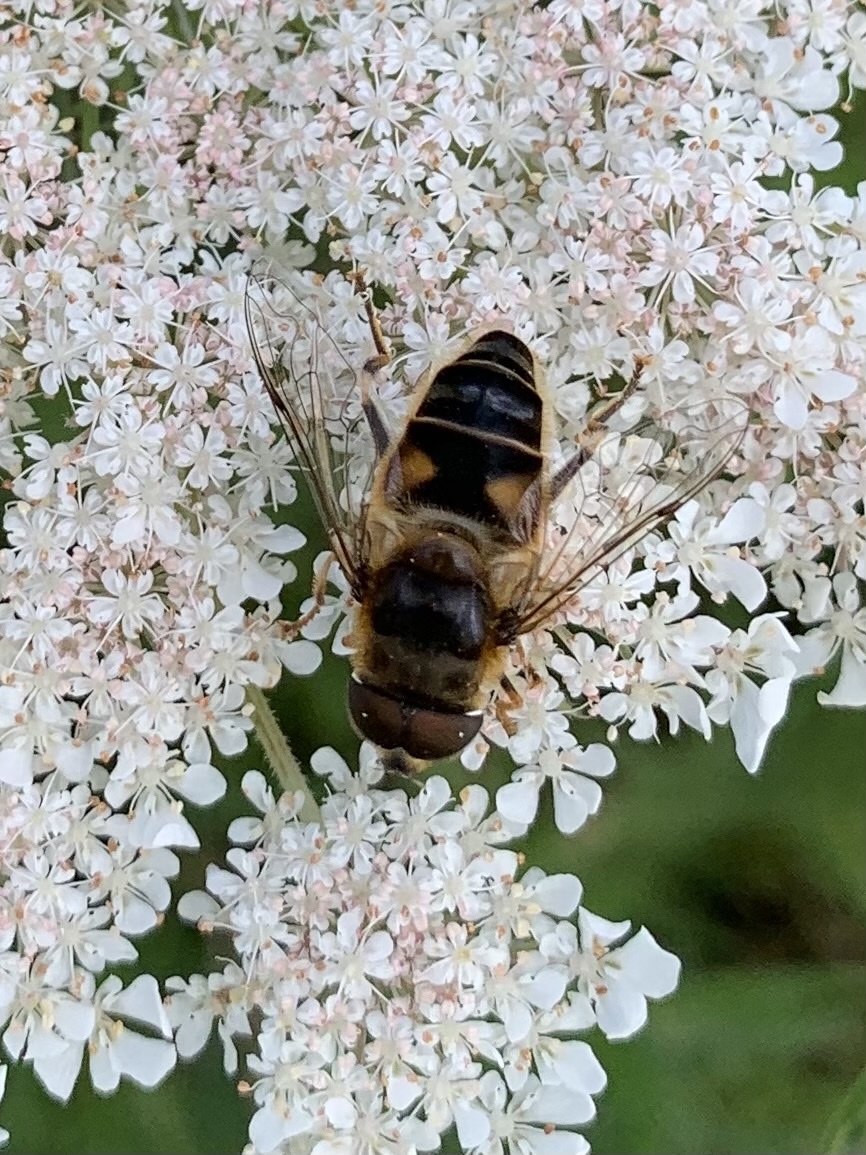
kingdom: Animalia
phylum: Arthropoda
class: Insecta
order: Diptera
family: Syrphidae
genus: Eristalis
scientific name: Eristalis pertinax
